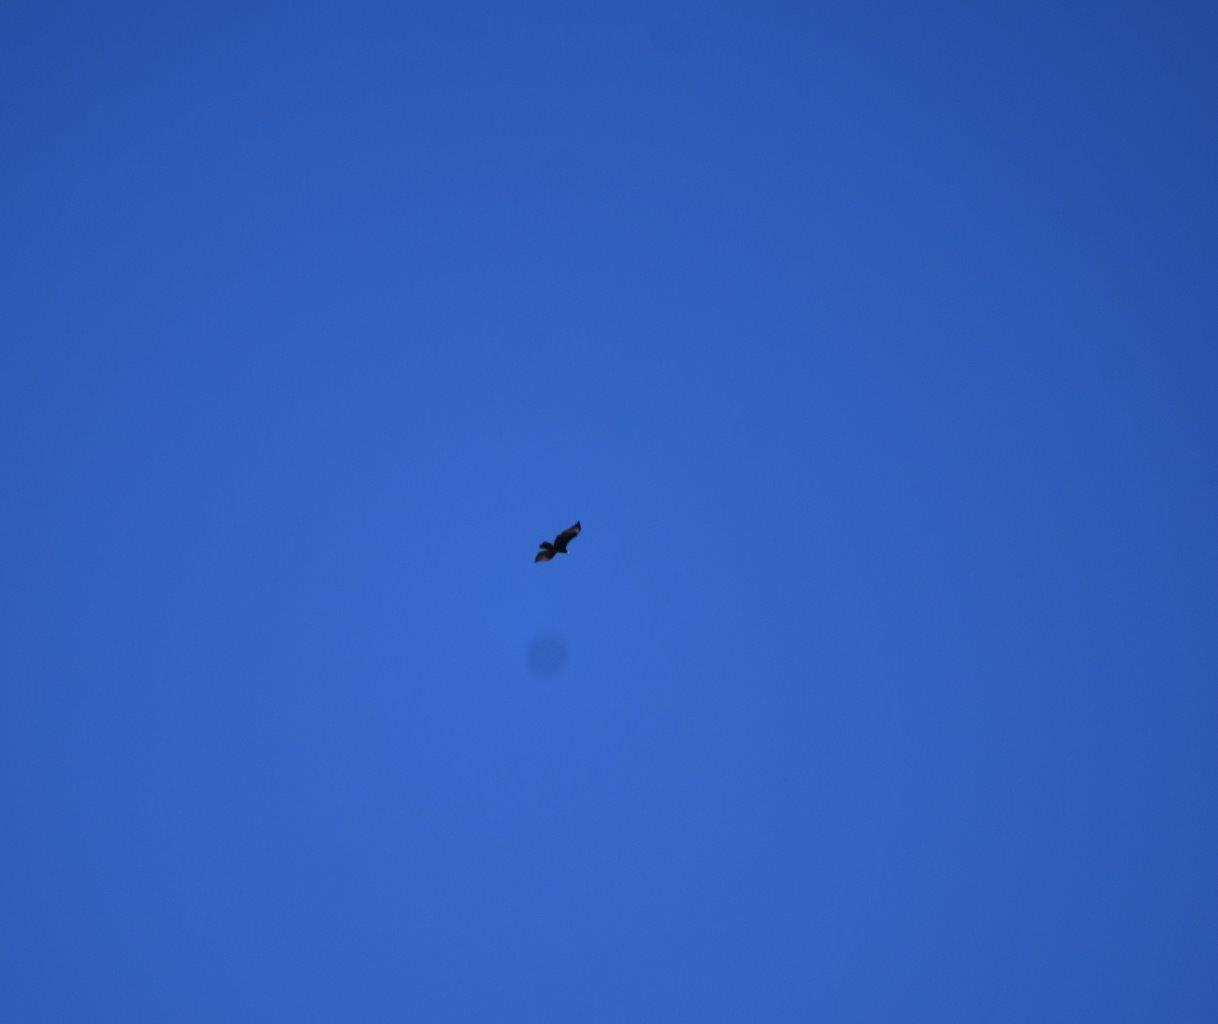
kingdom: Animalia
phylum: Chordata
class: Aves
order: Accipitriformes
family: Accipitridae
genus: Aquila
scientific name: Aquila verreauxii
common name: Verreaux's eagle
